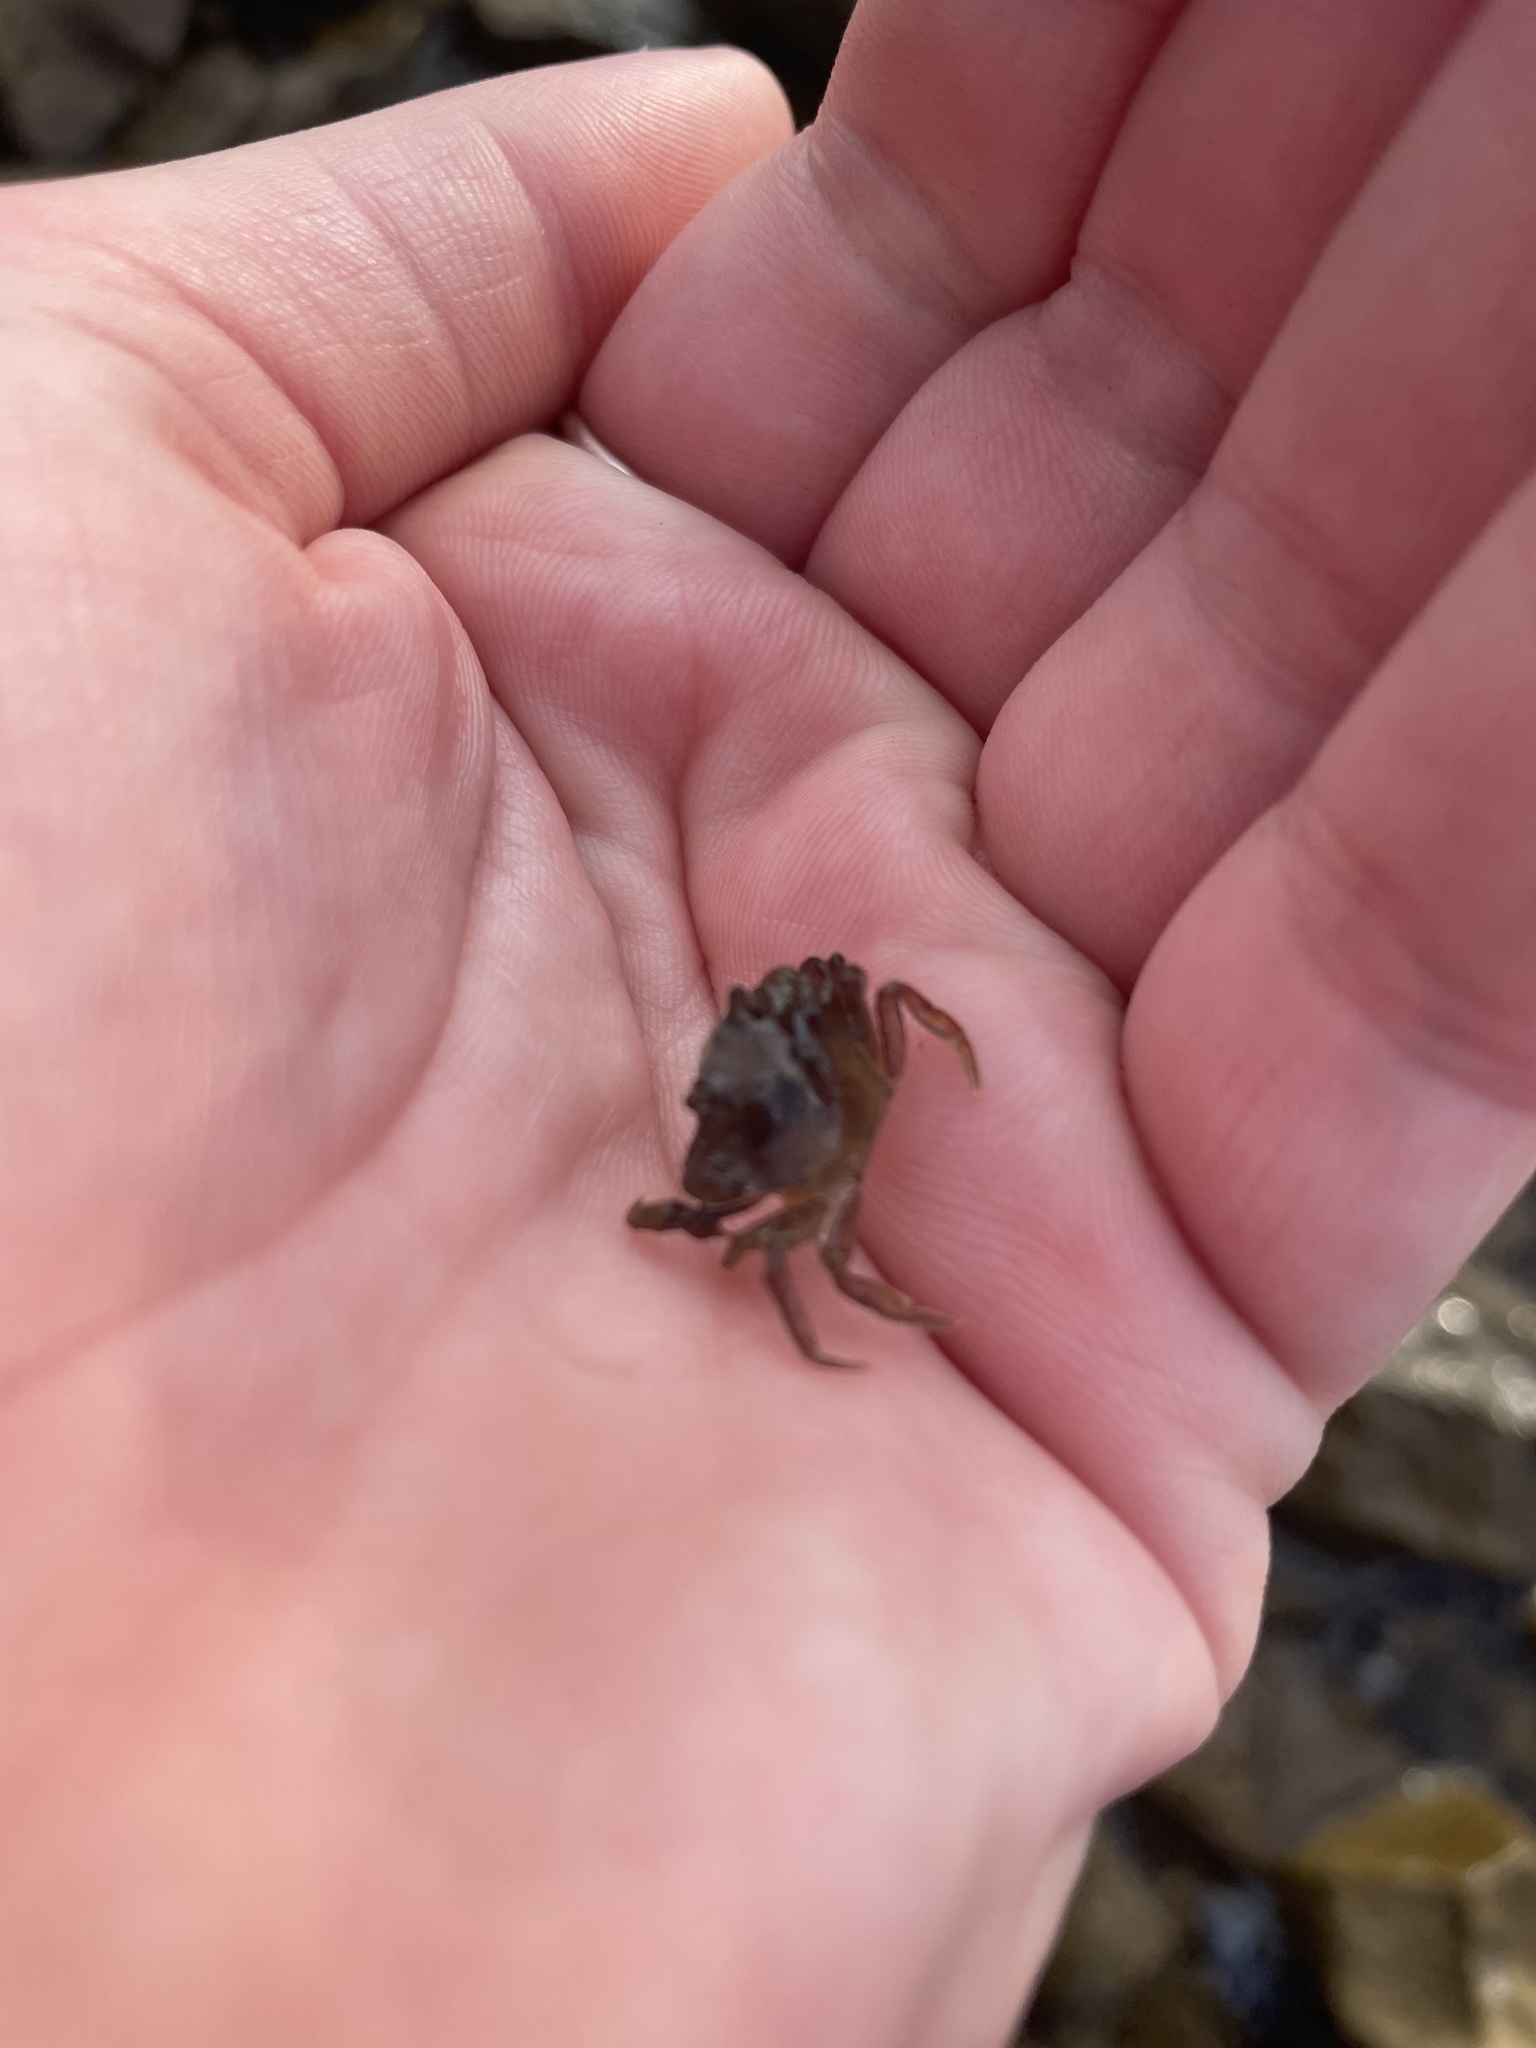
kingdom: Animalia
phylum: Arthropoda
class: Malacostraca
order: Decapoda
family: Carcinidae
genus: Carcinus
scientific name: Carcinus maenas
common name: European green crab
